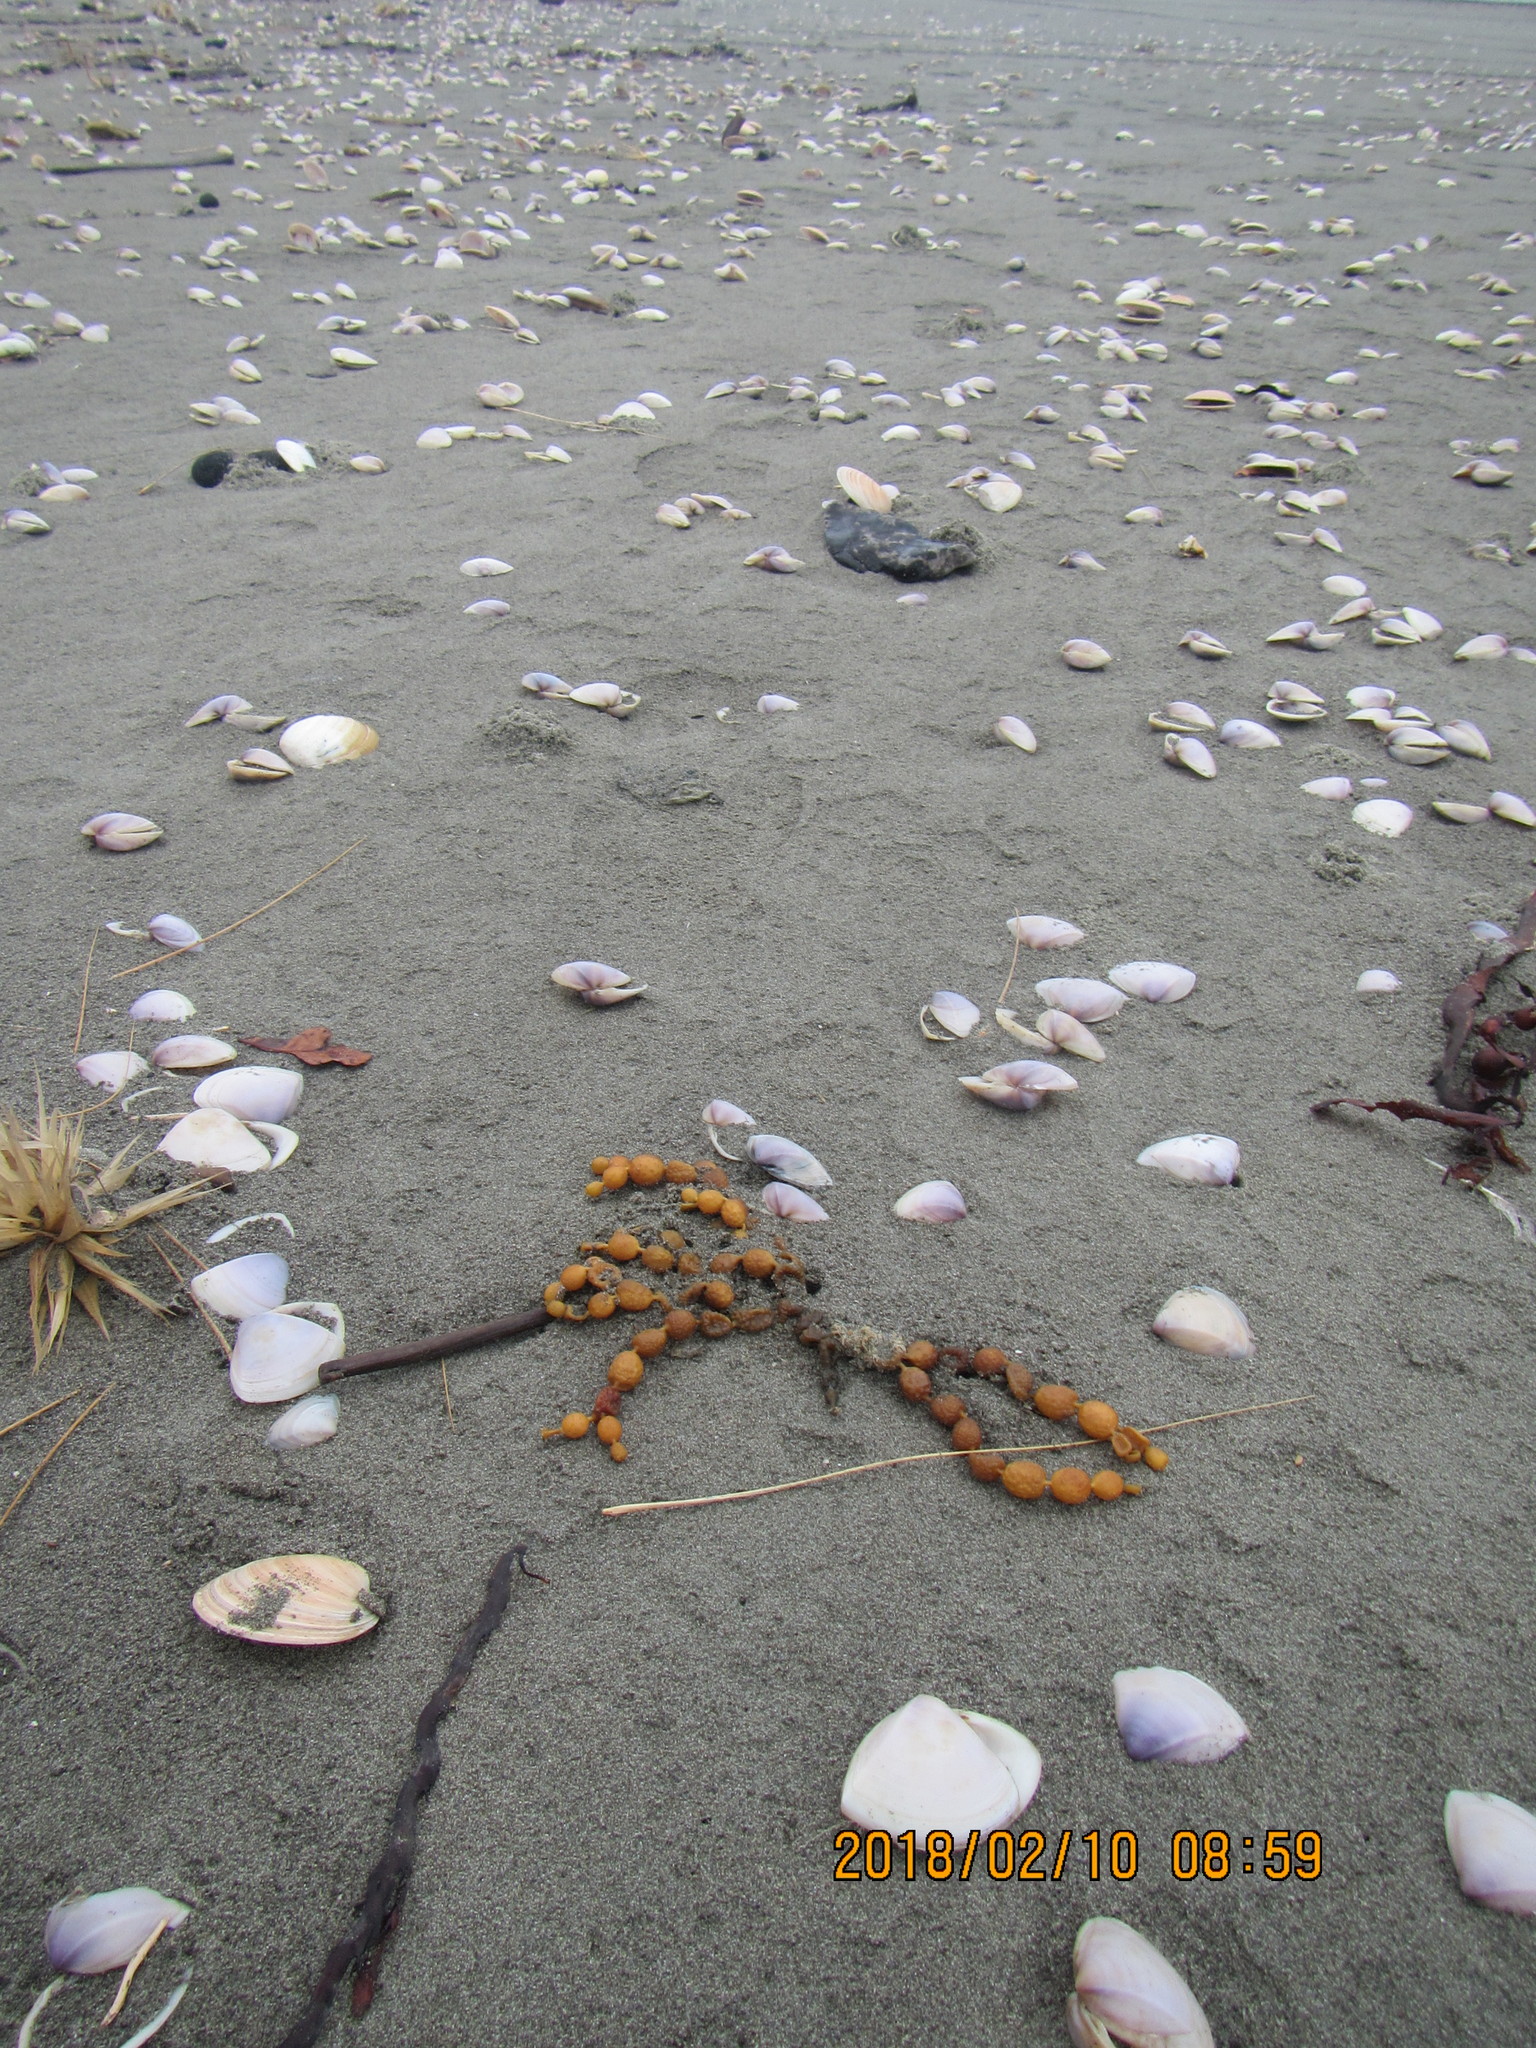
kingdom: Chromista
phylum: Ochrophyta
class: Phaeophyceae
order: Fucales
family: Hormosiraceae
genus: Hormosira
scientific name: Hormosira banksii
